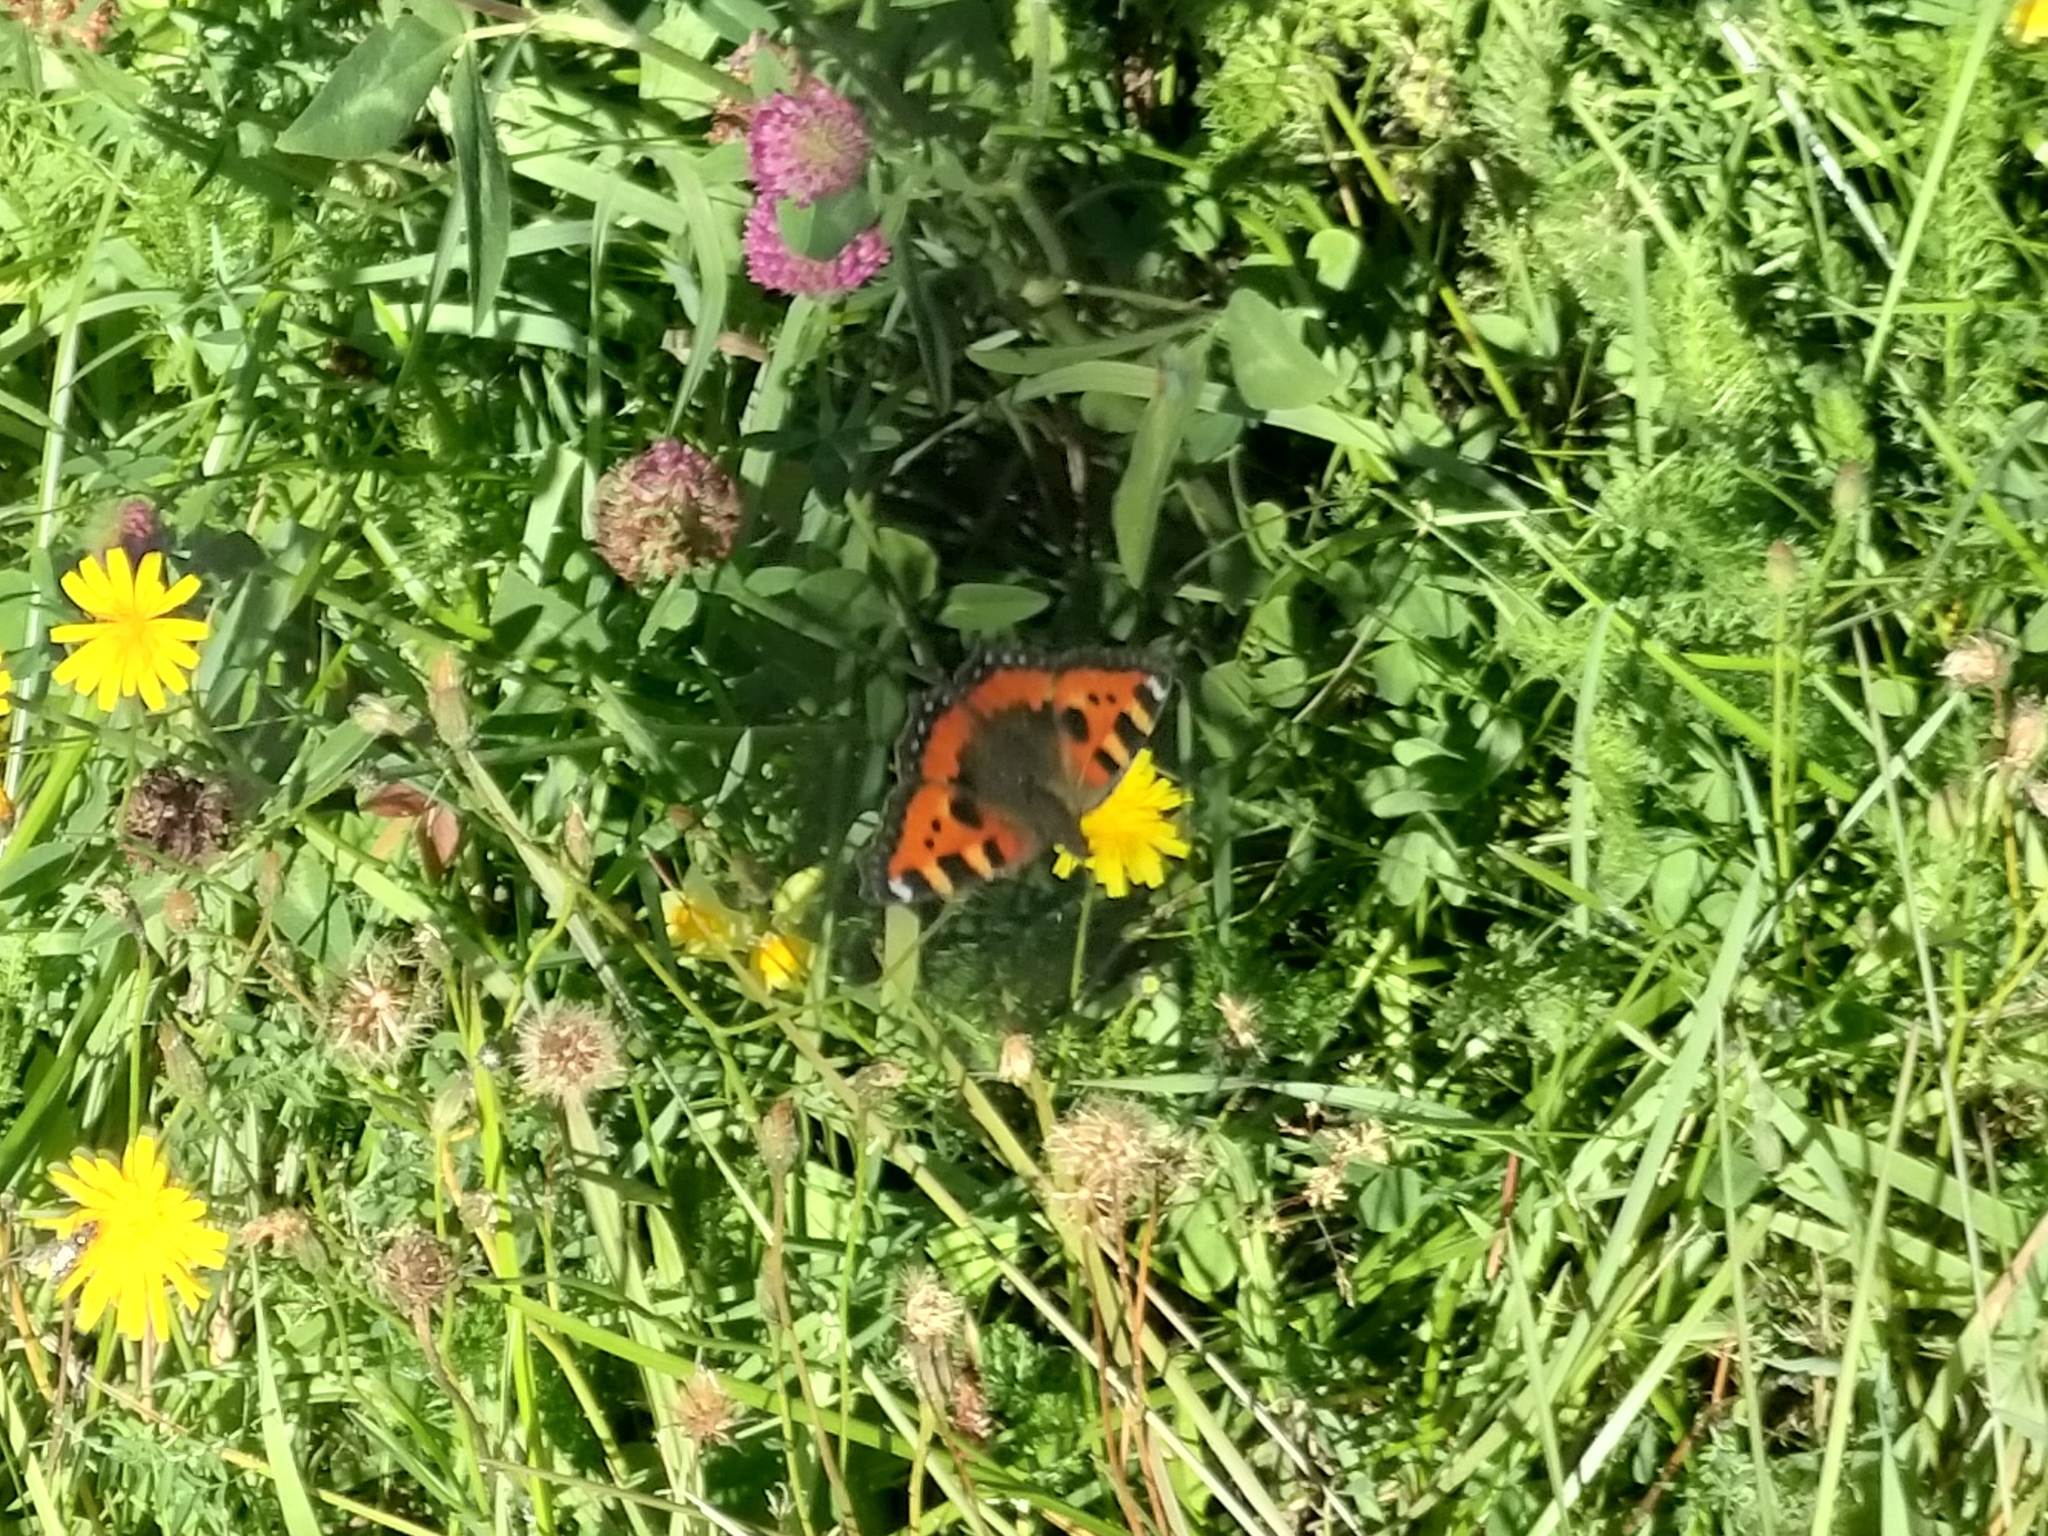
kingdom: Animalia
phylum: Arthropoda
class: Insecta
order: Lepidoptera
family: Nymphalidae
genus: Aglais
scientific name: Aglais urticae
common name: Small tortoiseshell
